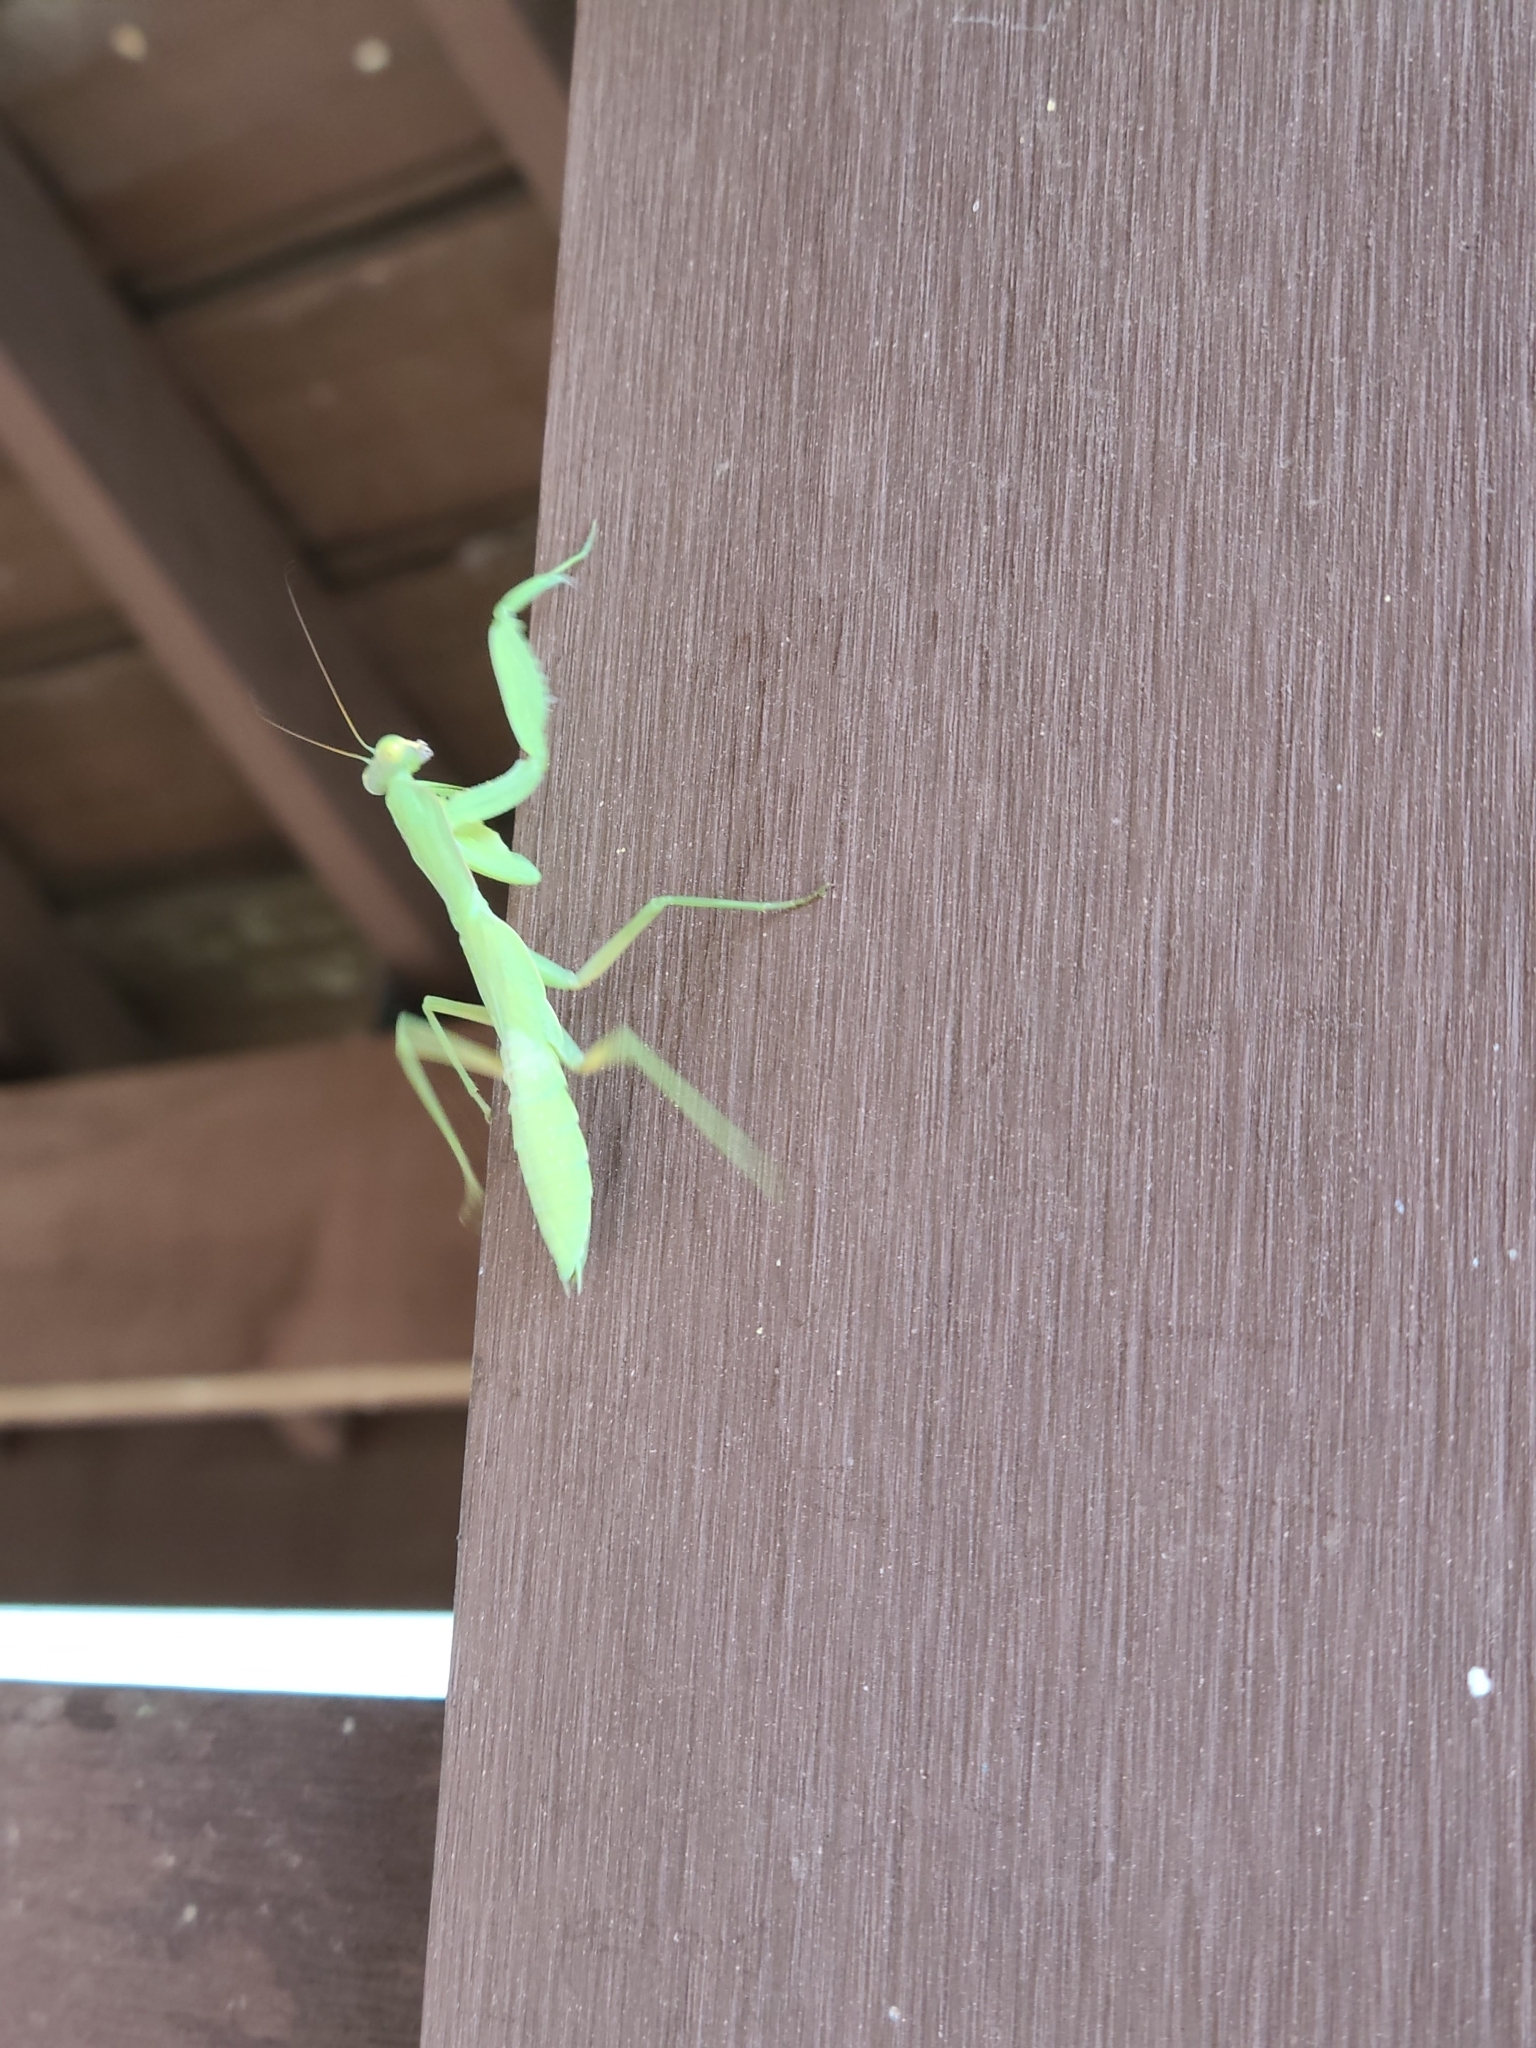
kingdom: Animalia
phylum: Arthropoda
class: Insecta
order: Mantodea
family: Mantidae
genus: Hierodula
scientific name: Hierodula patellifera
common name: Asian mantis
